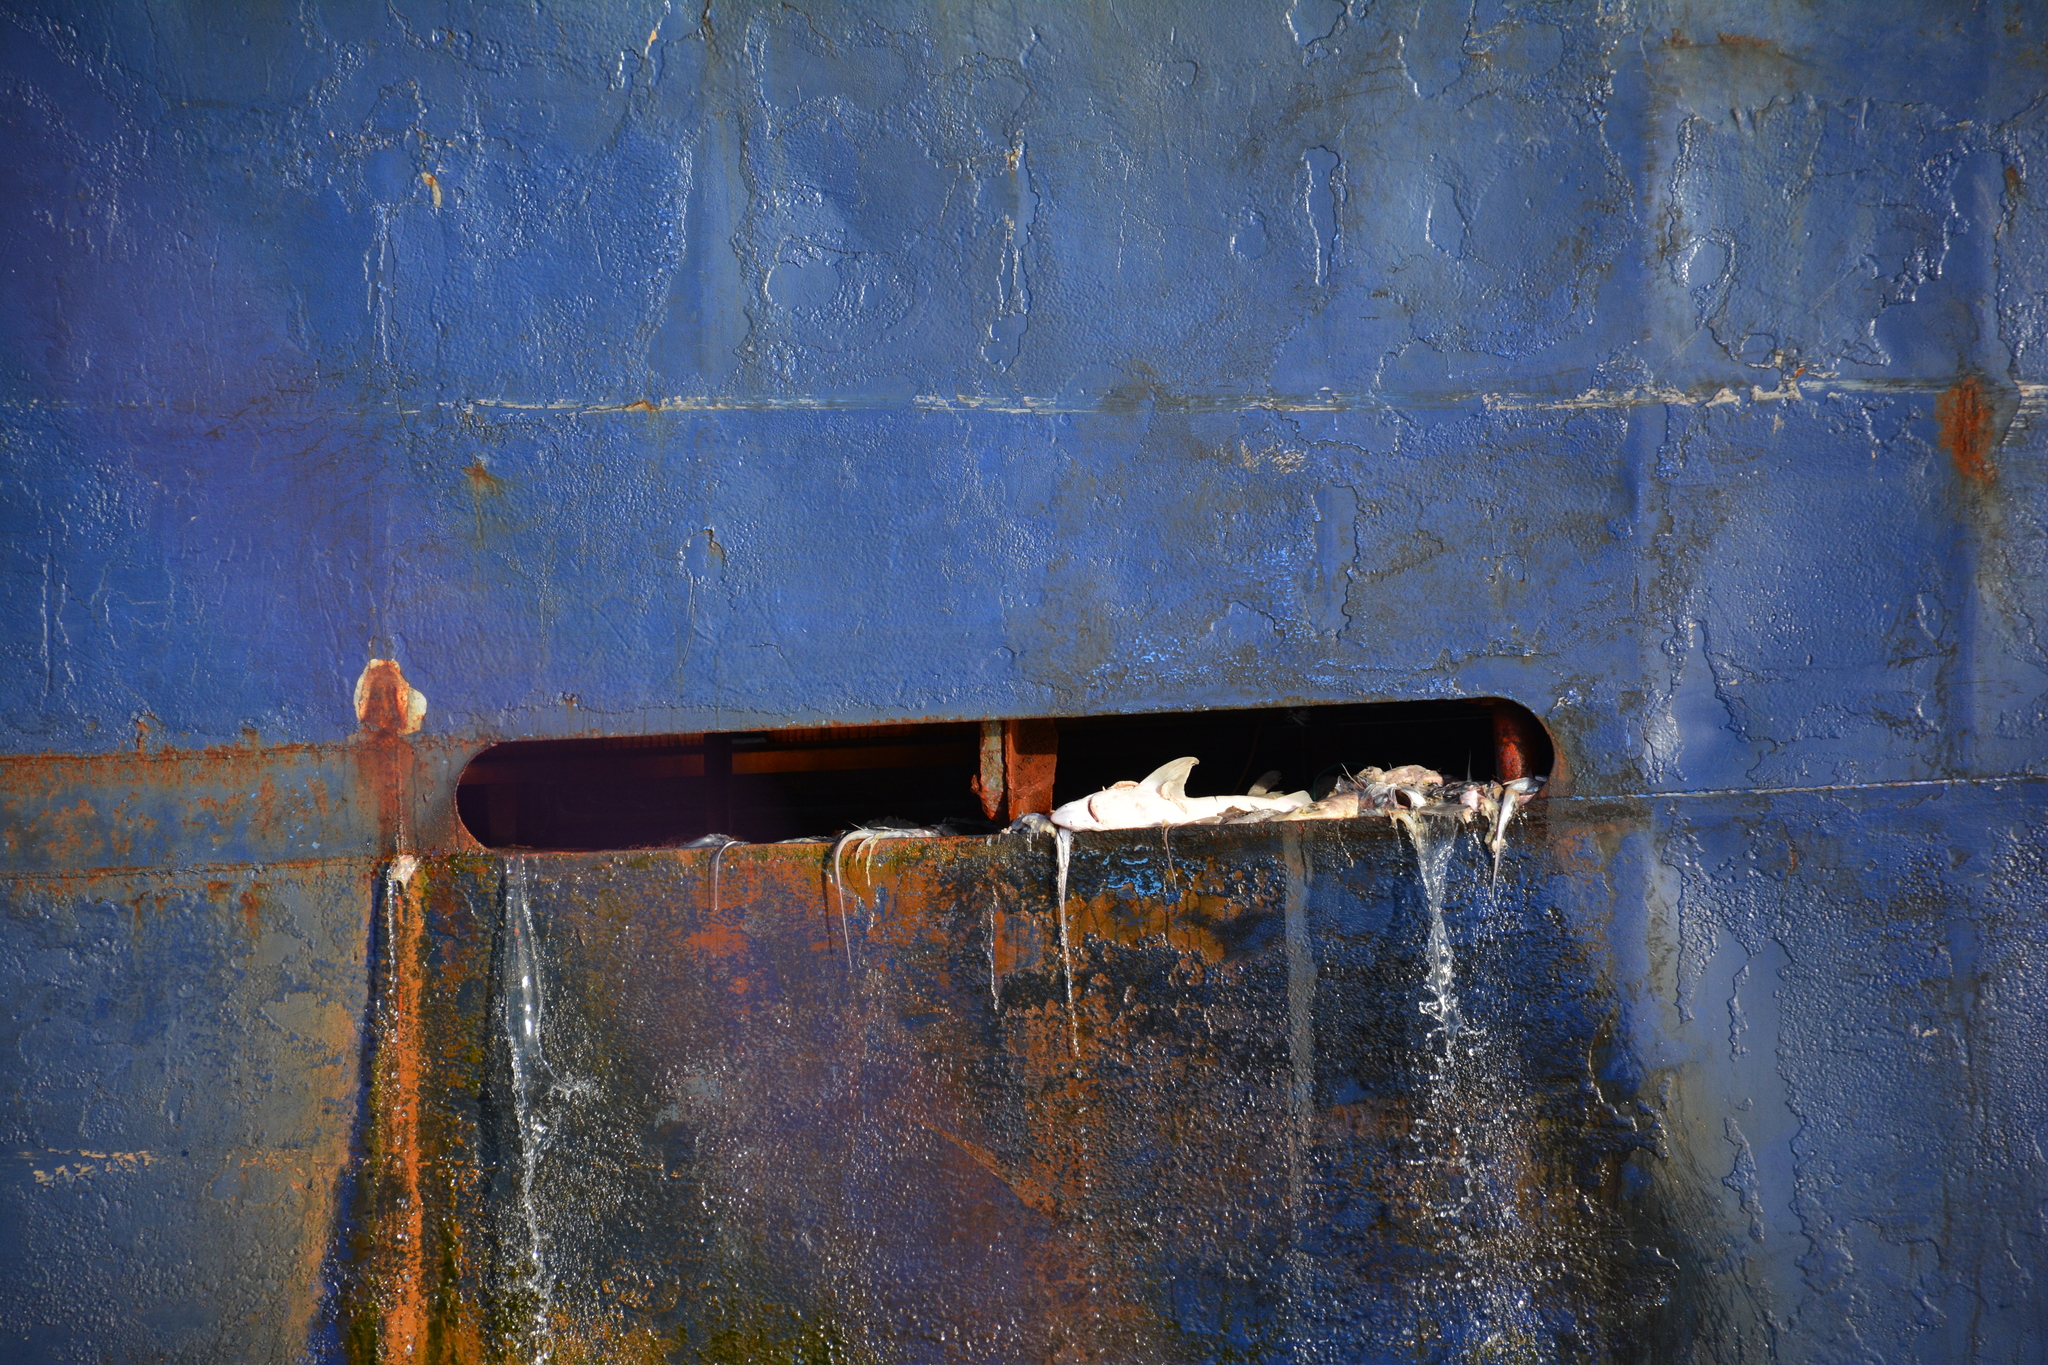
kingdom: Animalia
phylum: Chordata
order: Gadiformes
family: Merlucciidae
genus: Macruronus
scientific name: Macruronus novaezelandiae
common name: Blue grenadier
